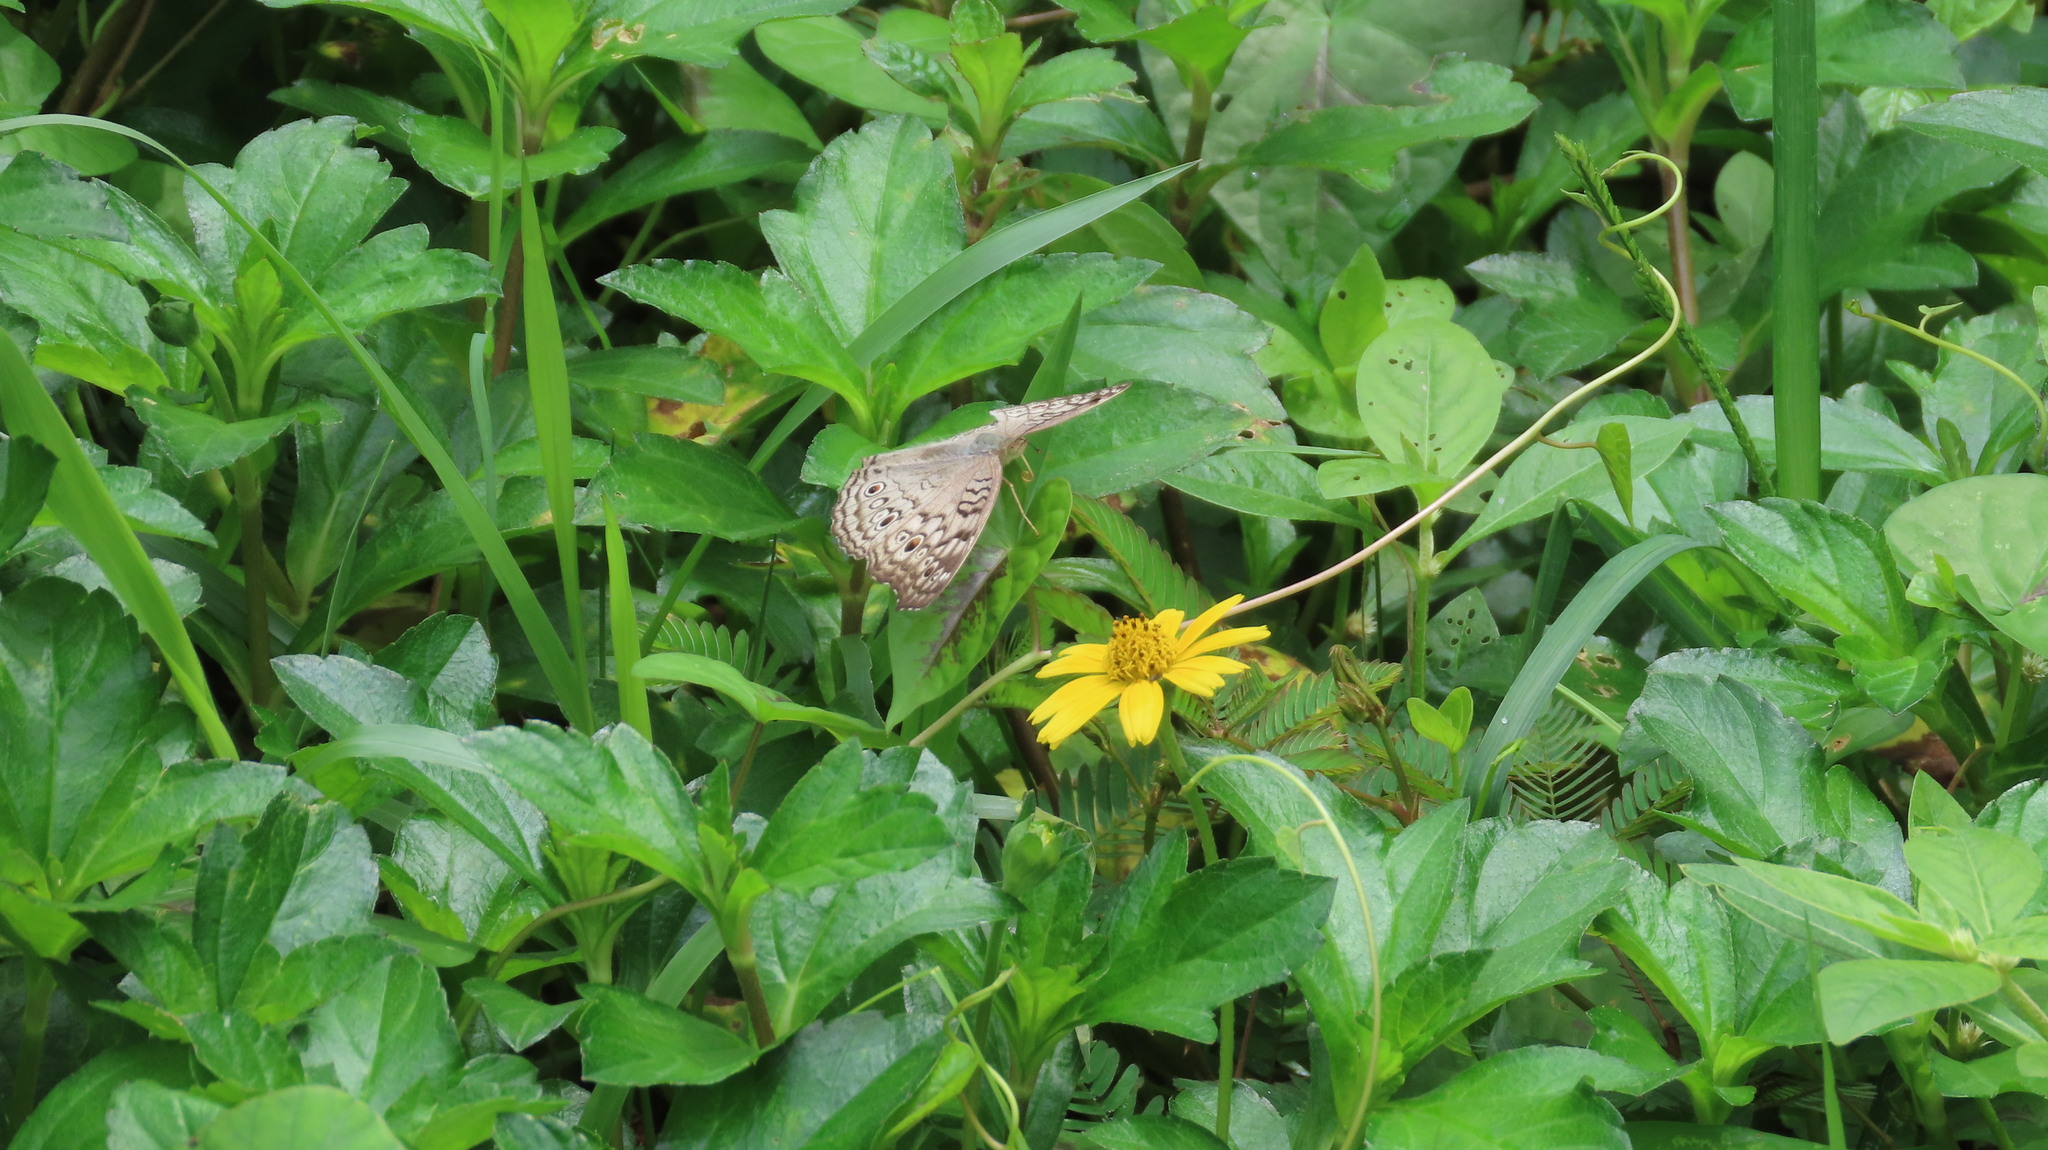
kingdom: Animalia
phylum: Arthropoda
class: Insecta
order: Lepidoptera
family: Nymphalidae
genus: Junonia
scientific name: Junonia atlites
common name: Grey pansy
